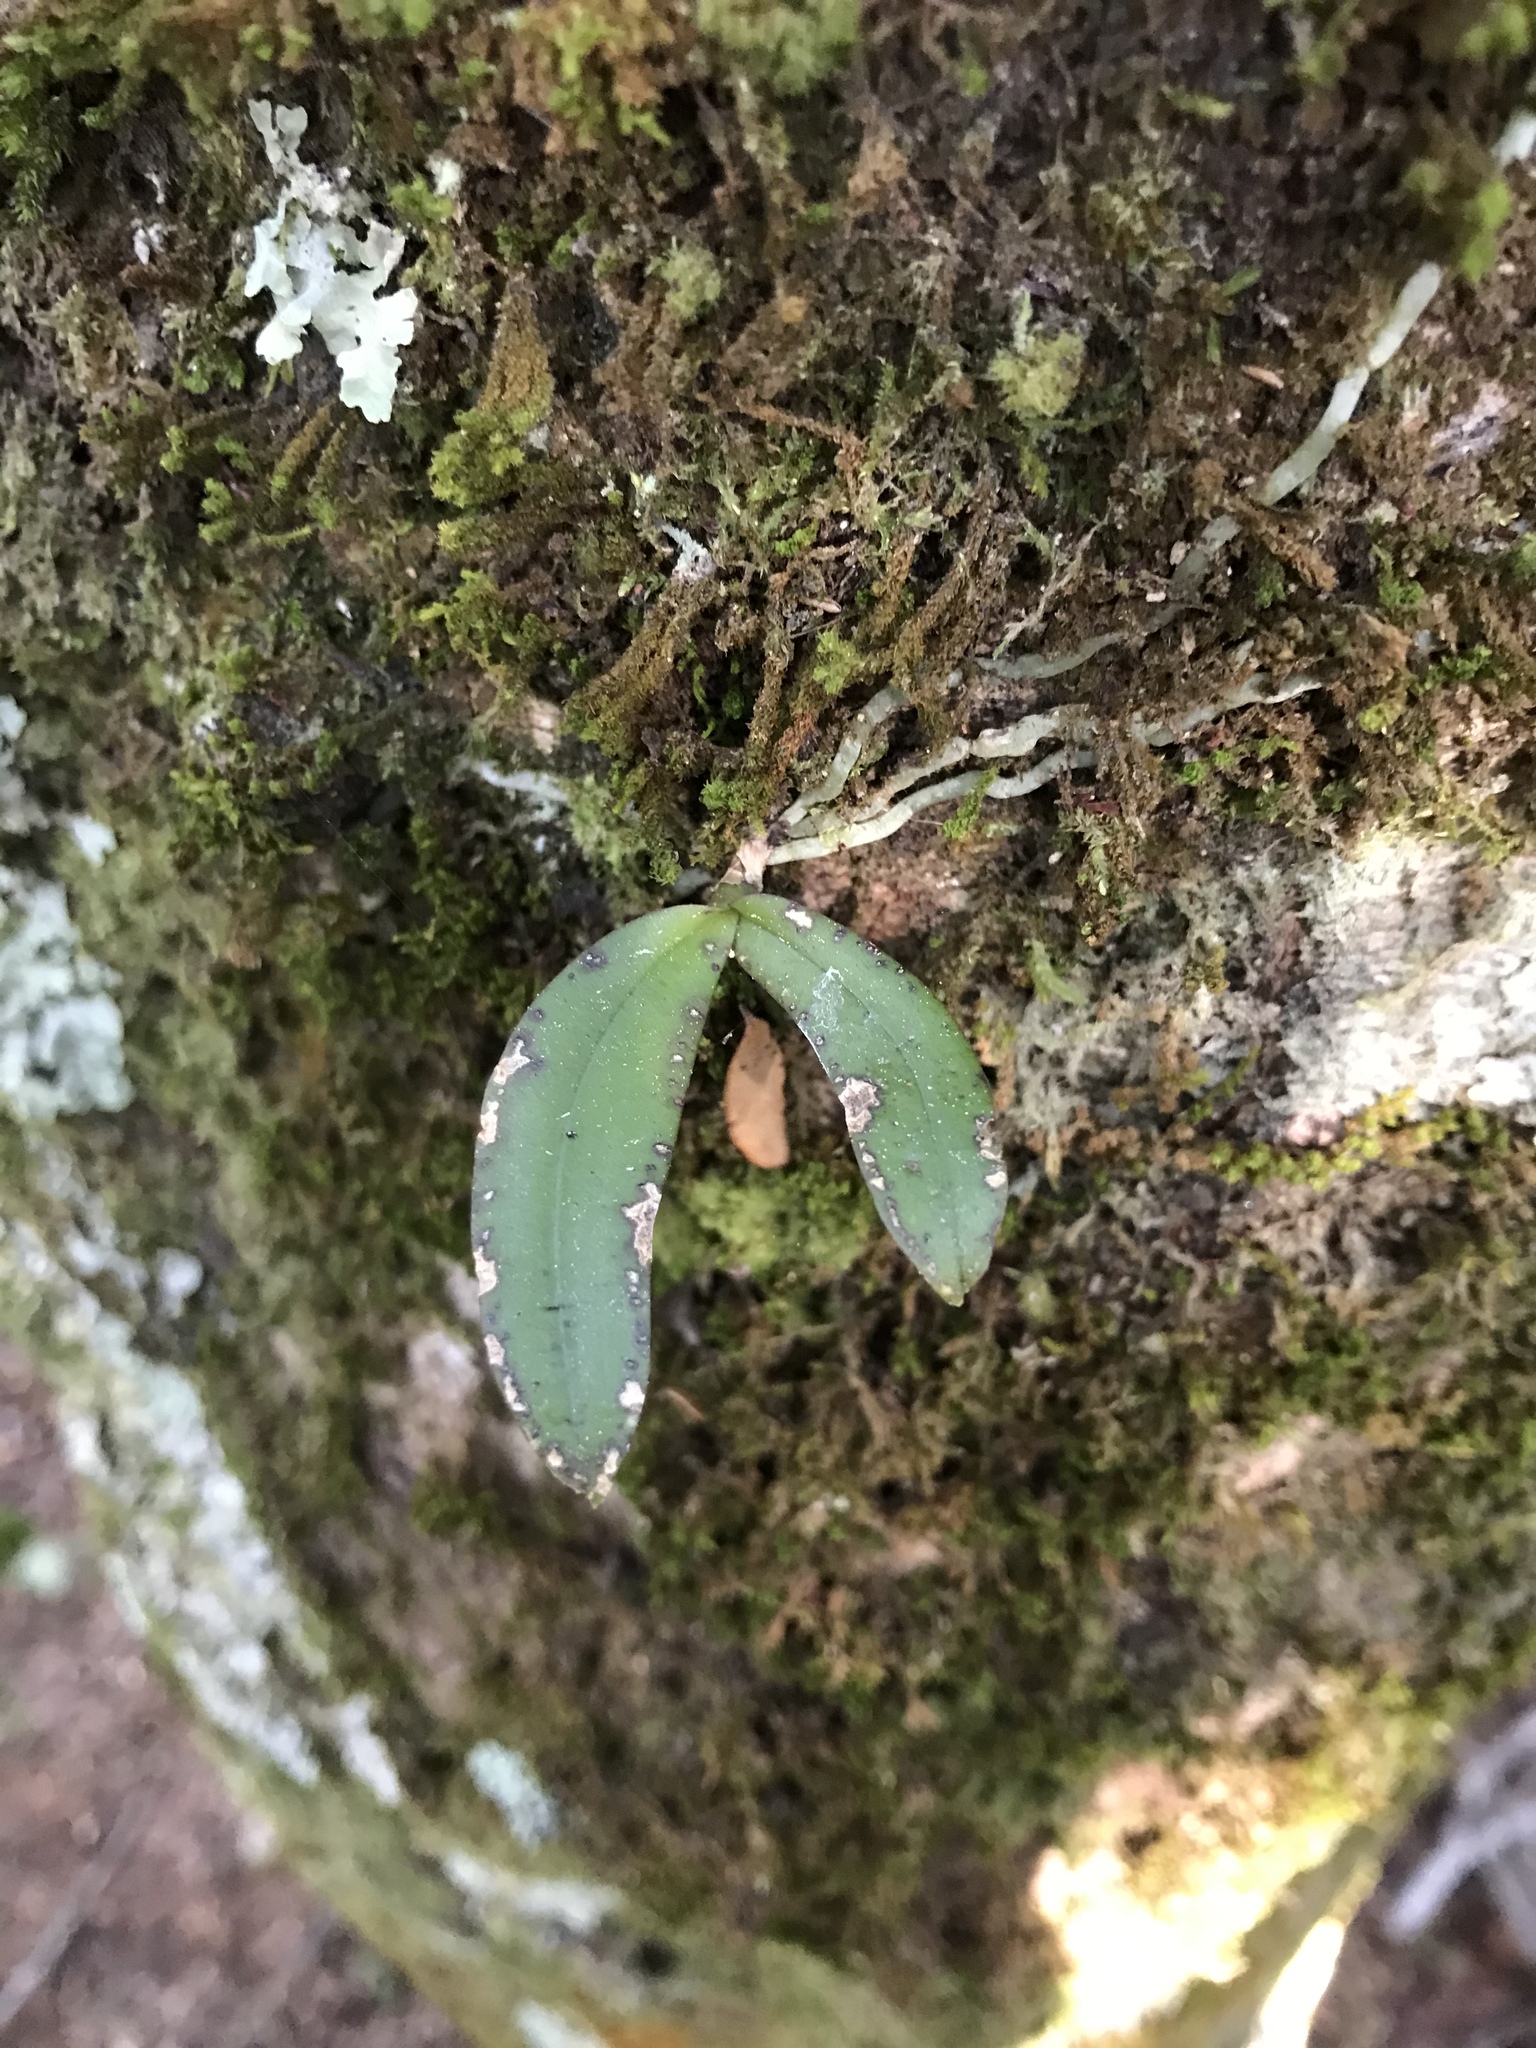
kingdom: Plantae
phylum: Tracheophyta
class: Liliopsida
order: Asparagales
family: Orchidaceae
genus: Drymoanthus
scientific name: Drymoanthus adversus
